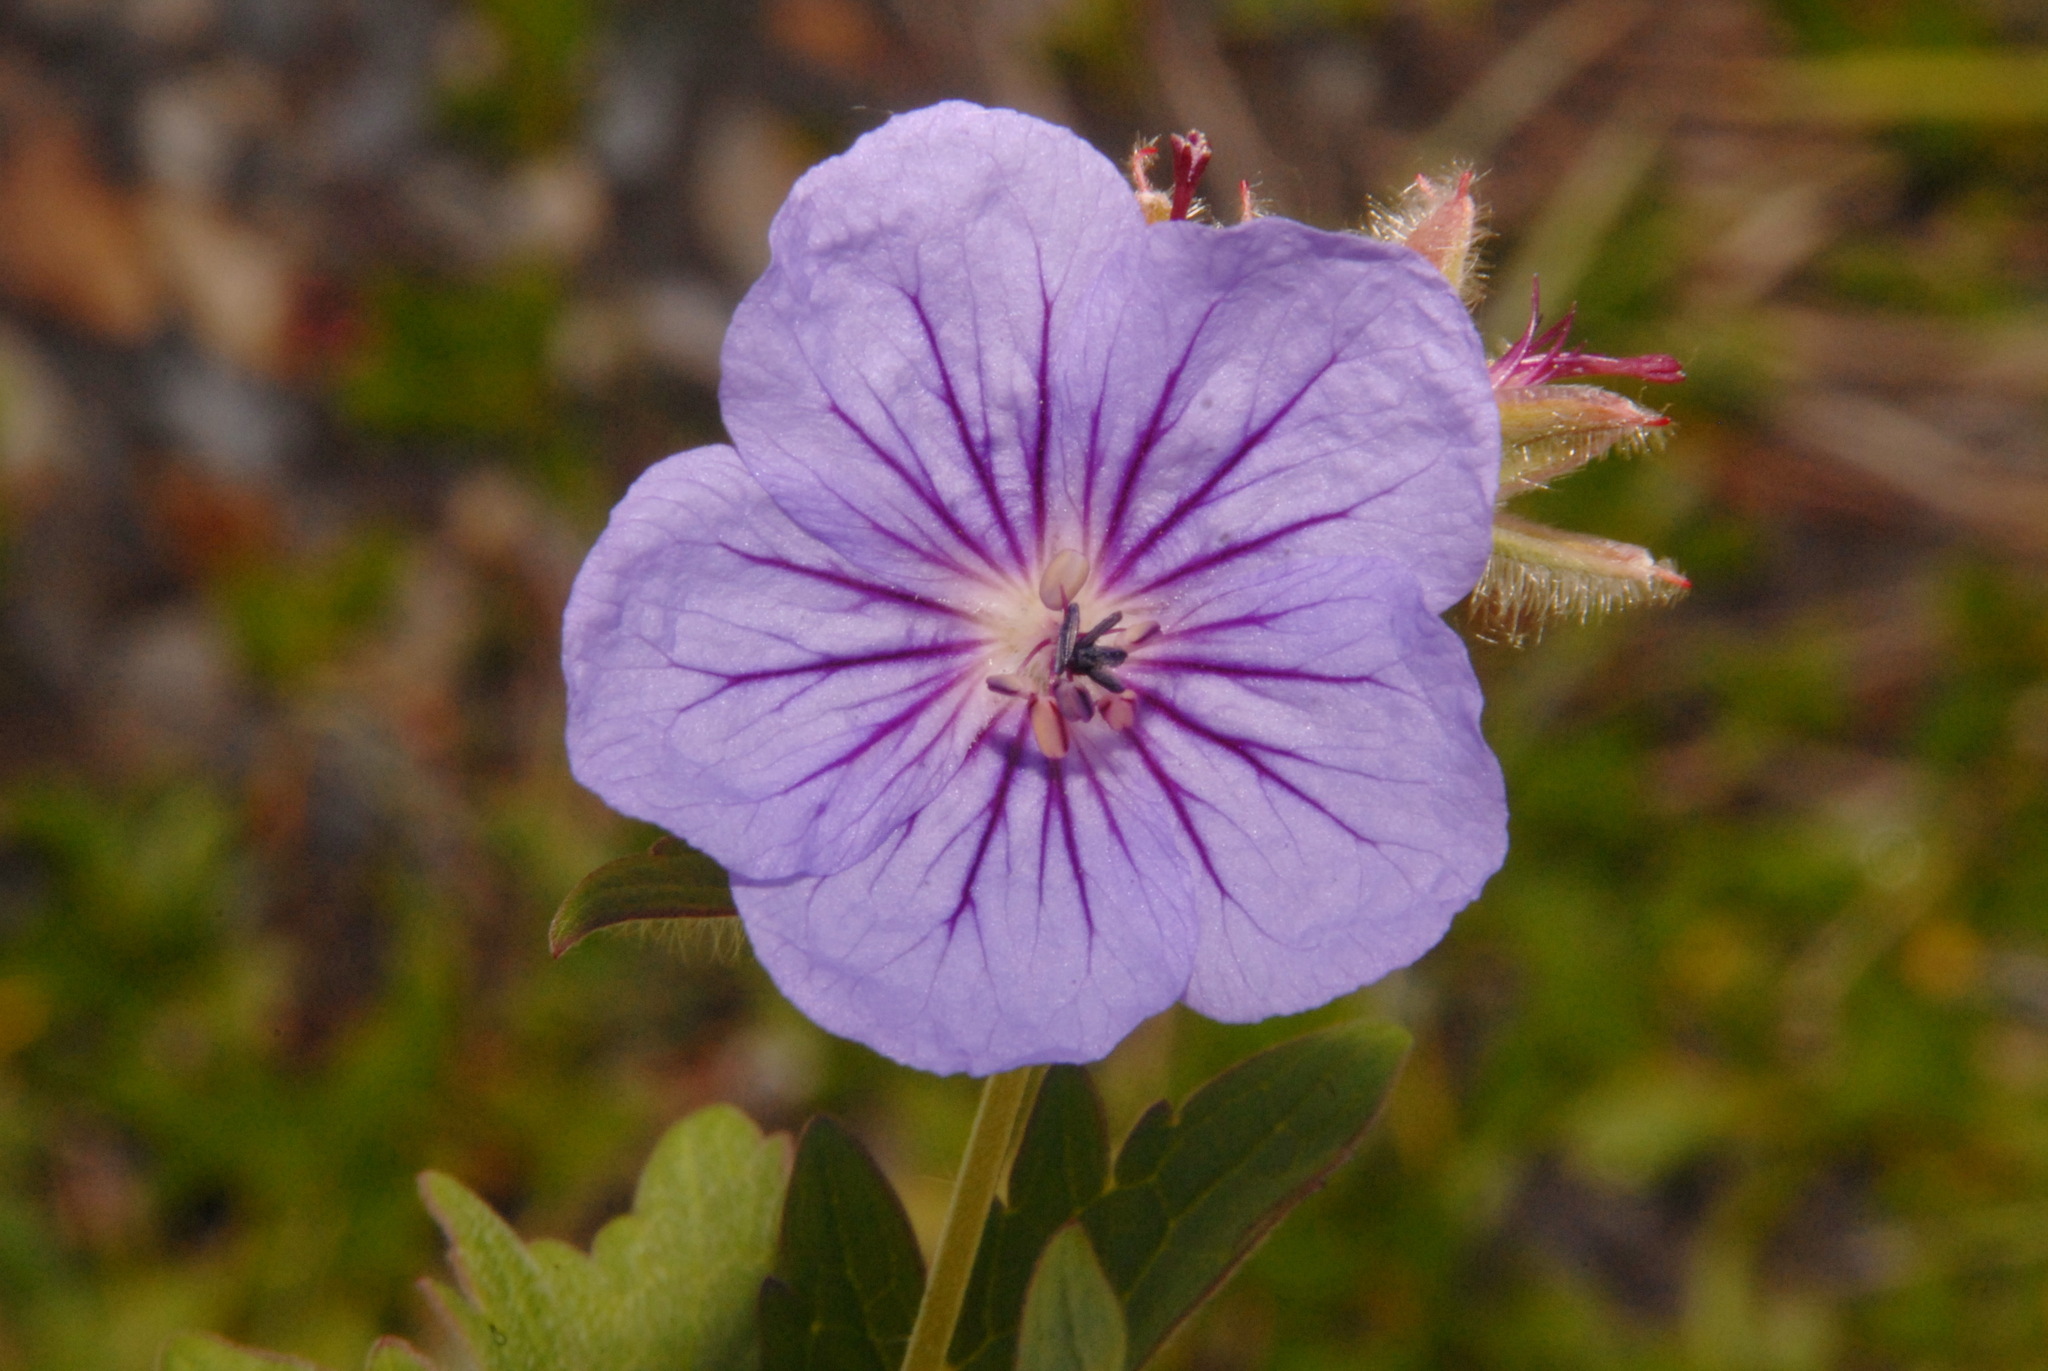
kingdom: Plantae
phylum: Tracheophyta
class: Magnoliopsida
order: Geraniales
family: Geraniaceae
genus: Geranium
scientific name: Geranium erianthum
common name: Northern crane's-bill
